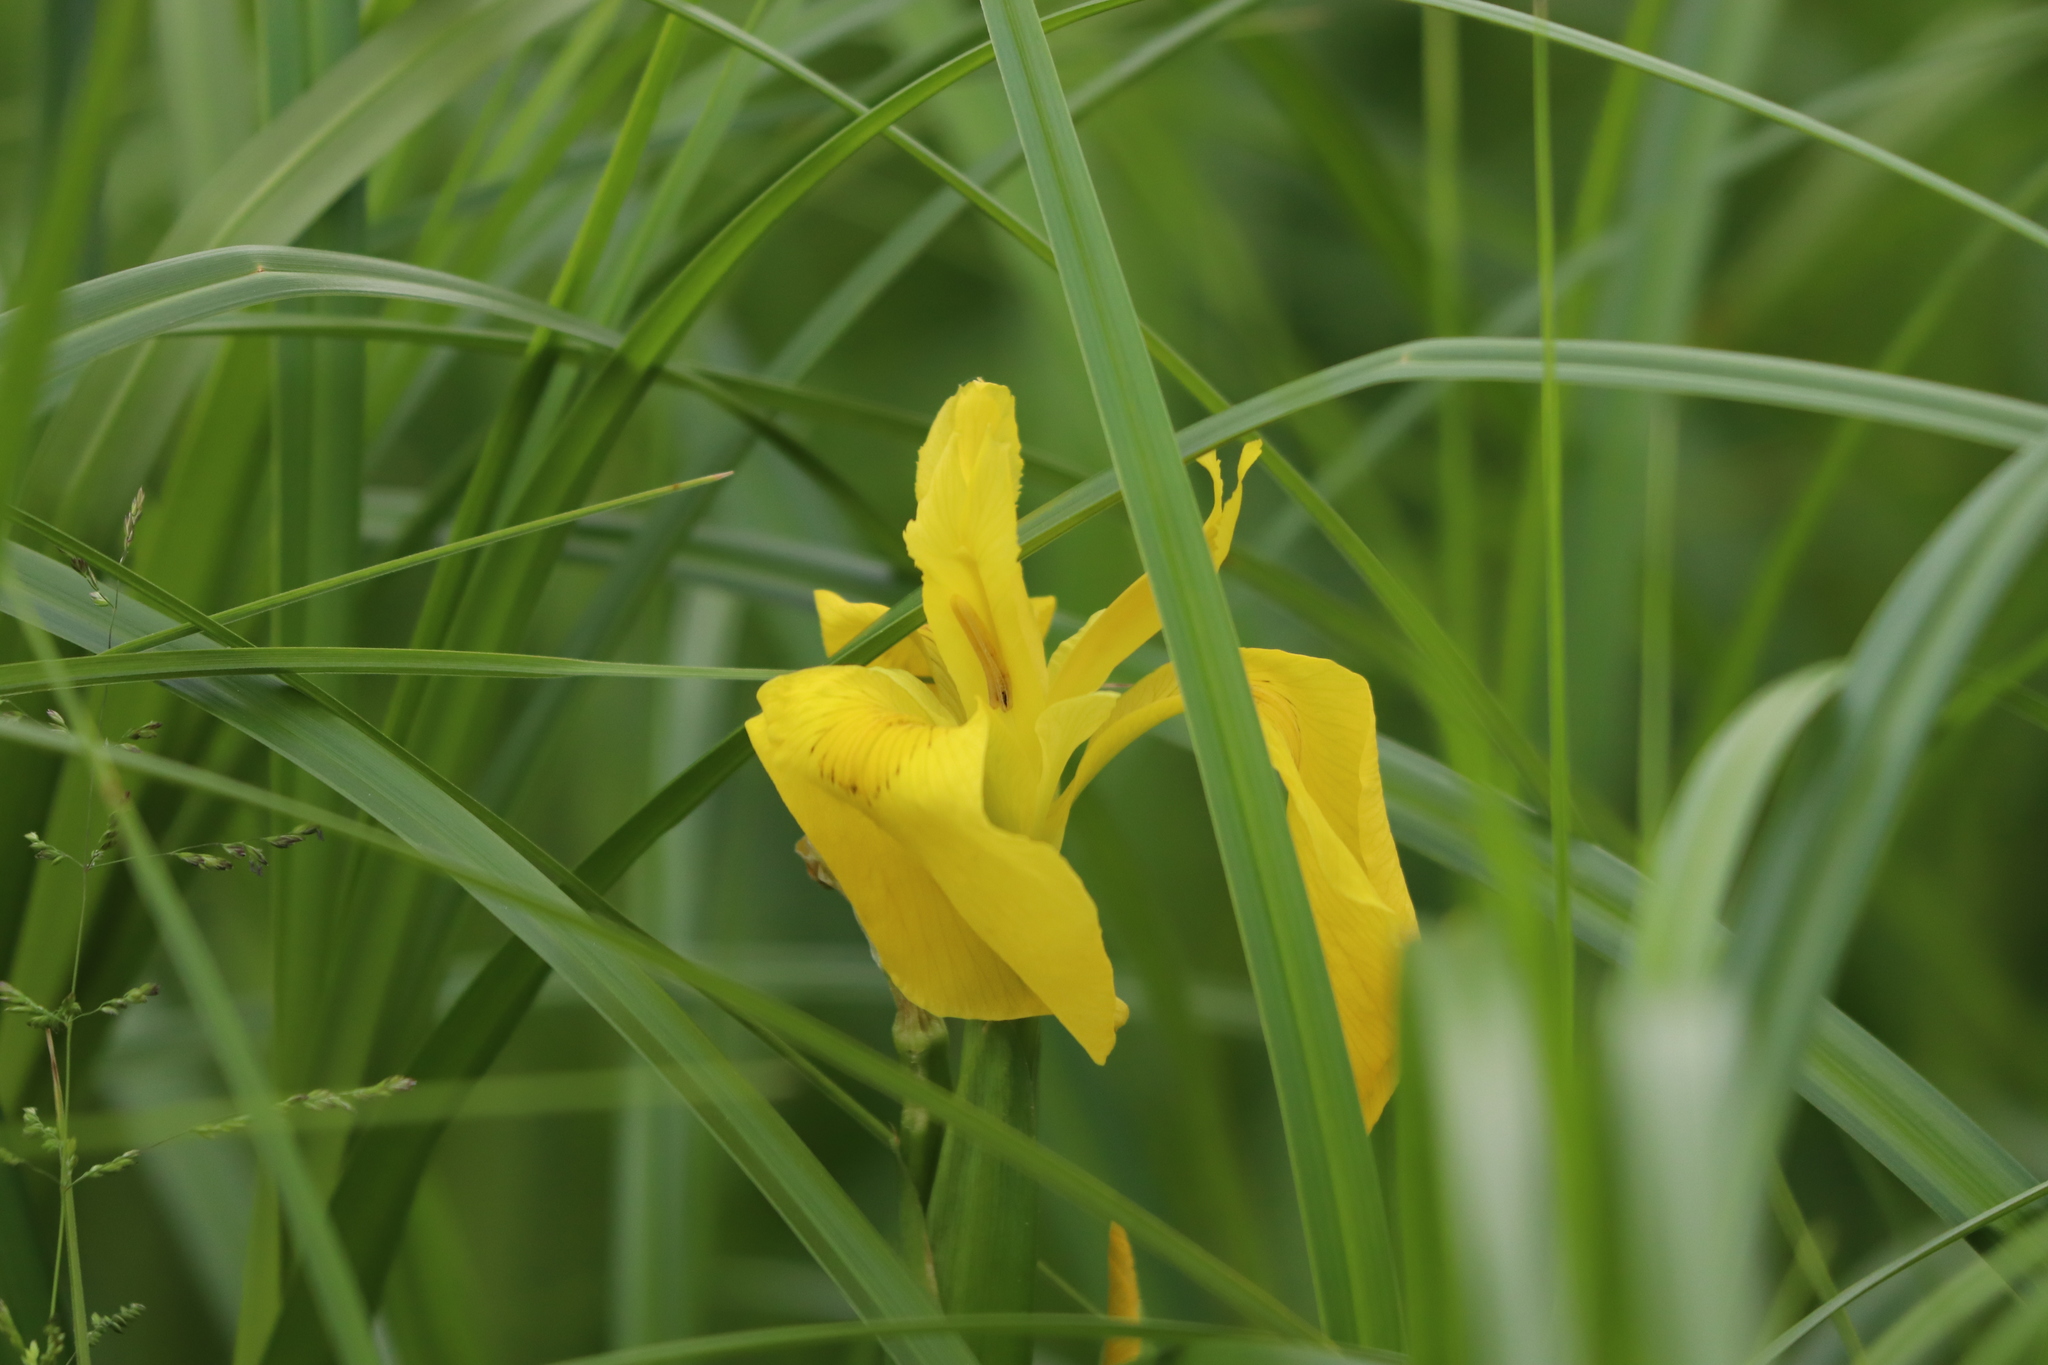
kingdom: Plantae
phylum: Tracheophyta
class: Liliopsida
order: Asparagales
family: Iridaceae
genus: Iris
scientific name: Iris pseudacorus
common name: Yellow flag
